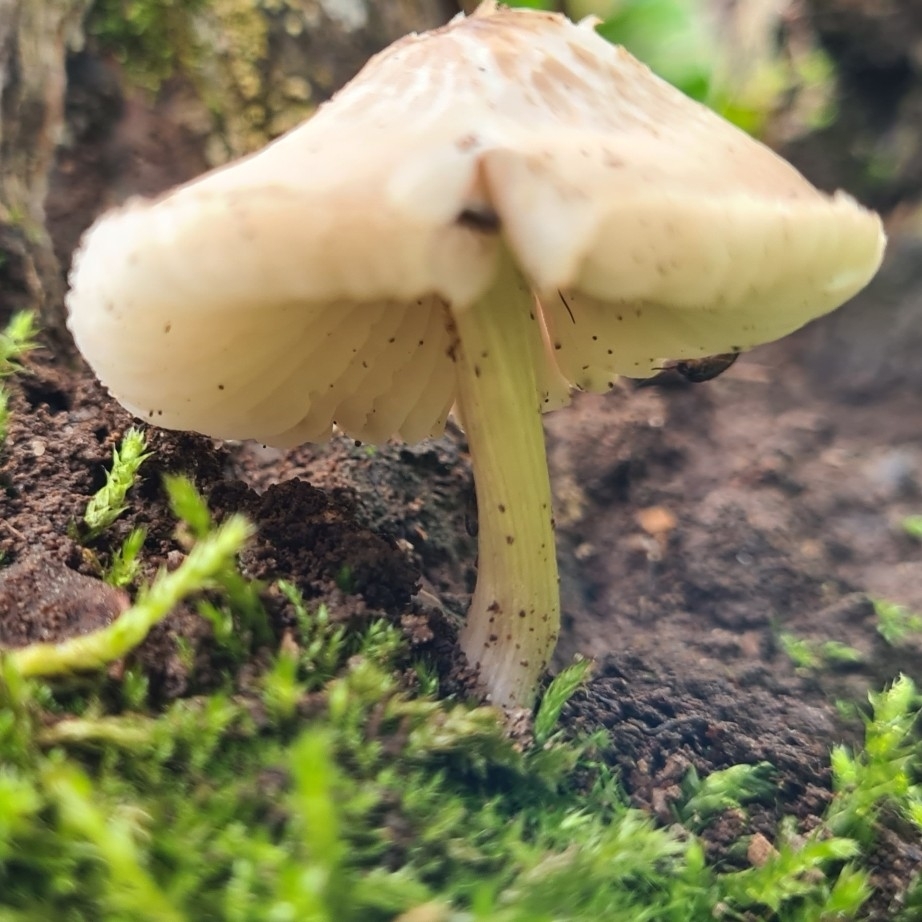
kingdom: Fungi
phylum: Basidiomycota
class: Agaricomycetes
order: Agaricales
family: Mycenaceae
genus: Mycena
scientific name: Mycena galericulata
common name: Bonnet mycena
